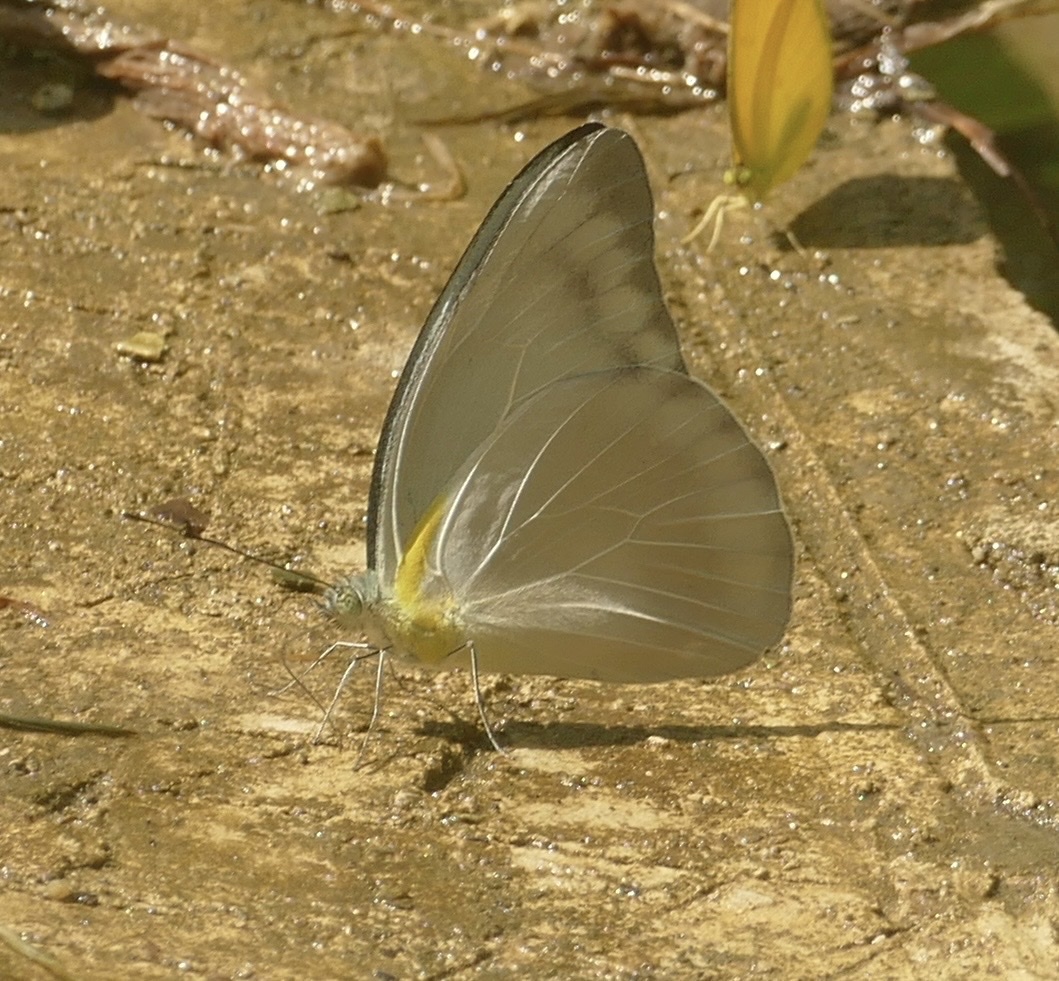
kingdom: Animalia
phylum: Arthropoda
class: Insecta
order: Lepidoptera
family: Pieridae
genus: Appias
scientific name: Appias celestina
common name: Common migrant
